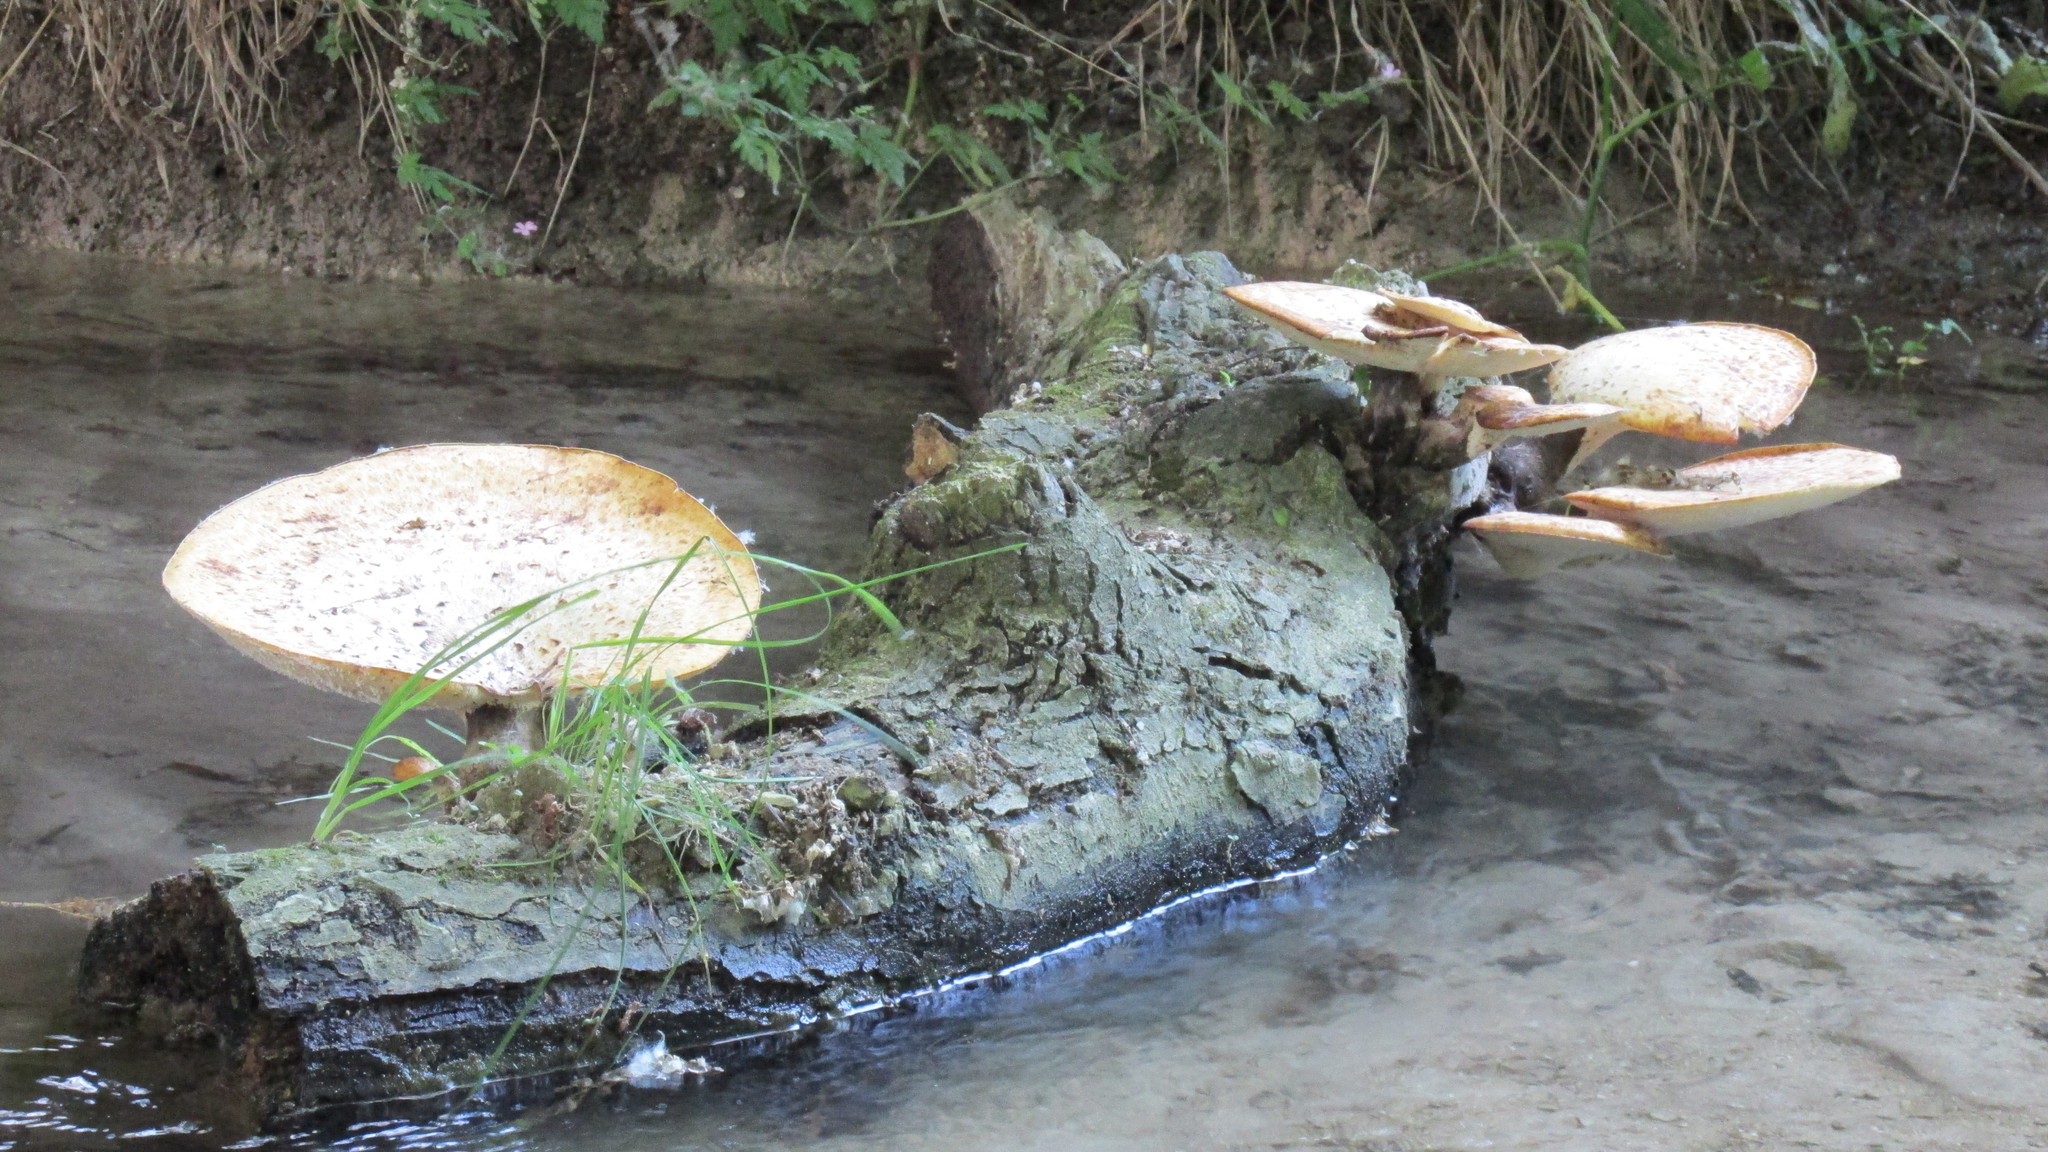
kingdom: Fungi
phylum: Basidiomycota
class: Agaricomycetes
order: Polyporales
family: Polyporaceae
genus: Cerioporus
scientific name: Cerioporus squamosus
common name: Dryad's saddle
